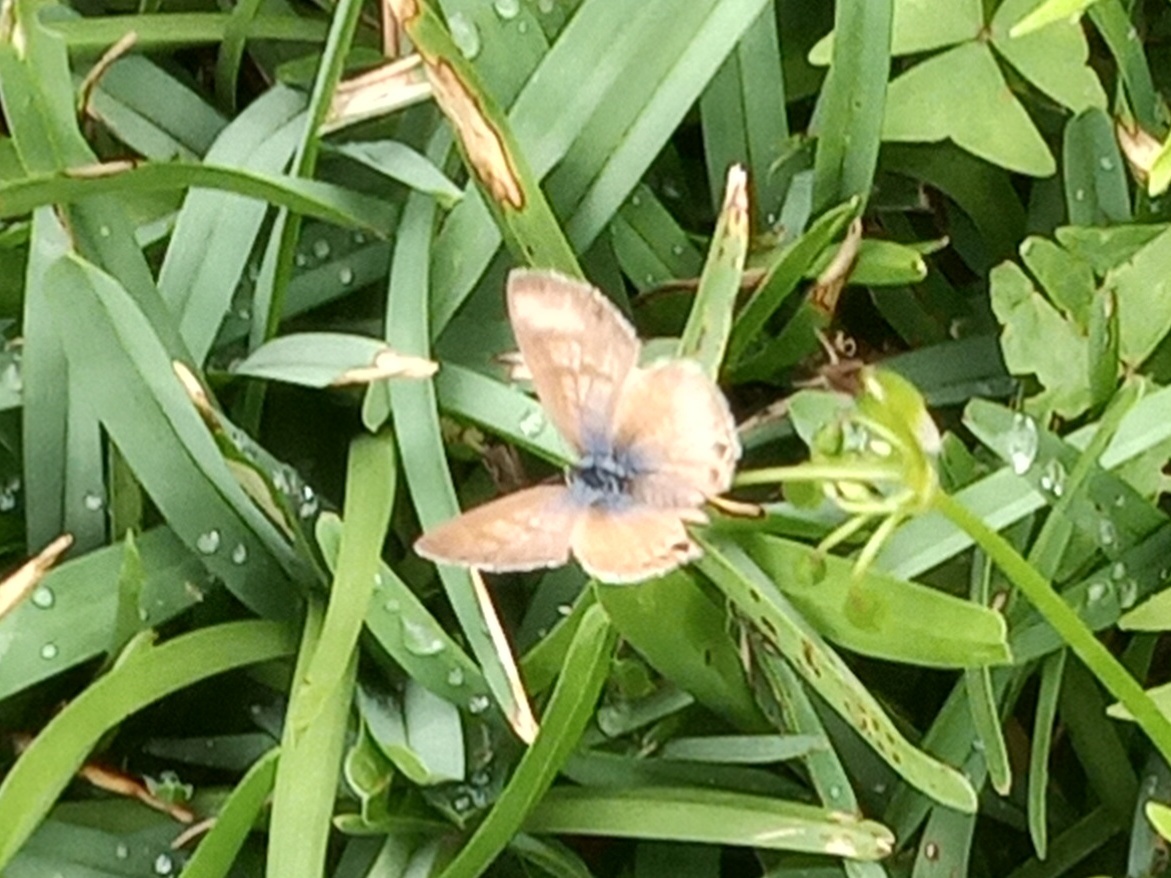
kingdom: Animalia
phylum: Arthropoda
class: Insecta
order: Lepidoptera
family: Lycaenidae
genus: Leptotes
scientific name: Leptotes marina
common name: Marine blue
